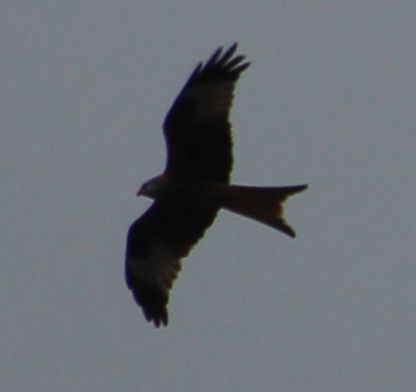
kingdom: Animalia
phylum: Chordata
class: Aves
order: Accipitriformes
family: Accipitridae
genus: Milvus
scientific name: Milvus milvus
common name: Red kite
